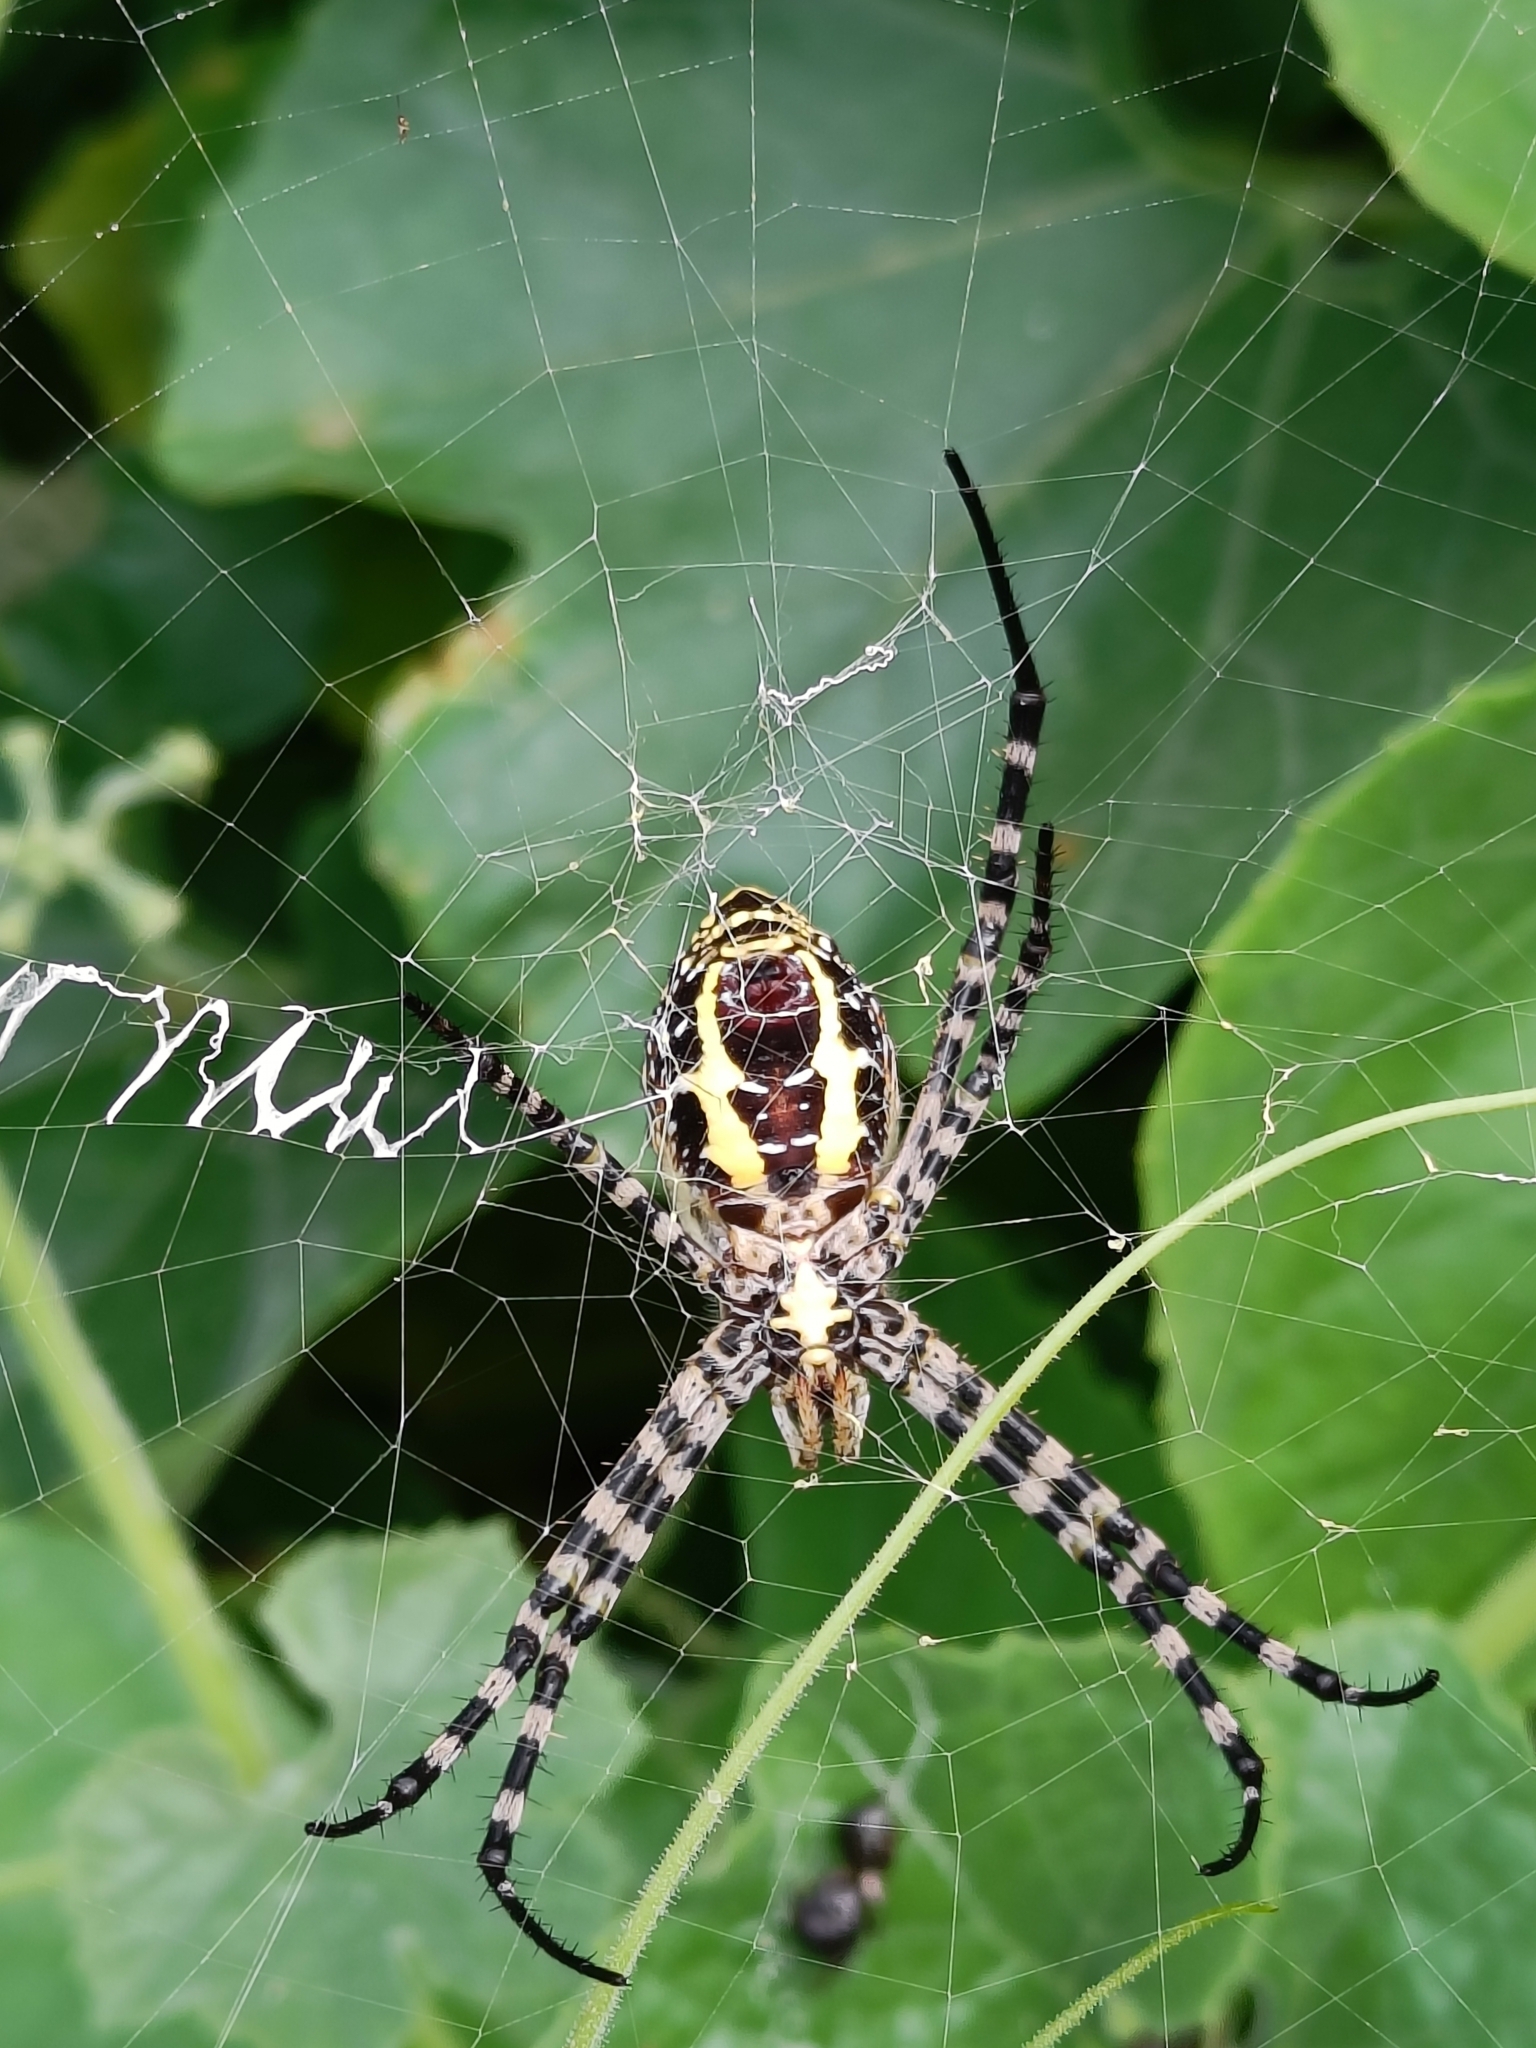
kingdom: Animalia
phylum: Arthropoda
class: Arachnida
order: Araneae
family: Araneidae
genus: Argiope
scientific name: Argiope aemula
